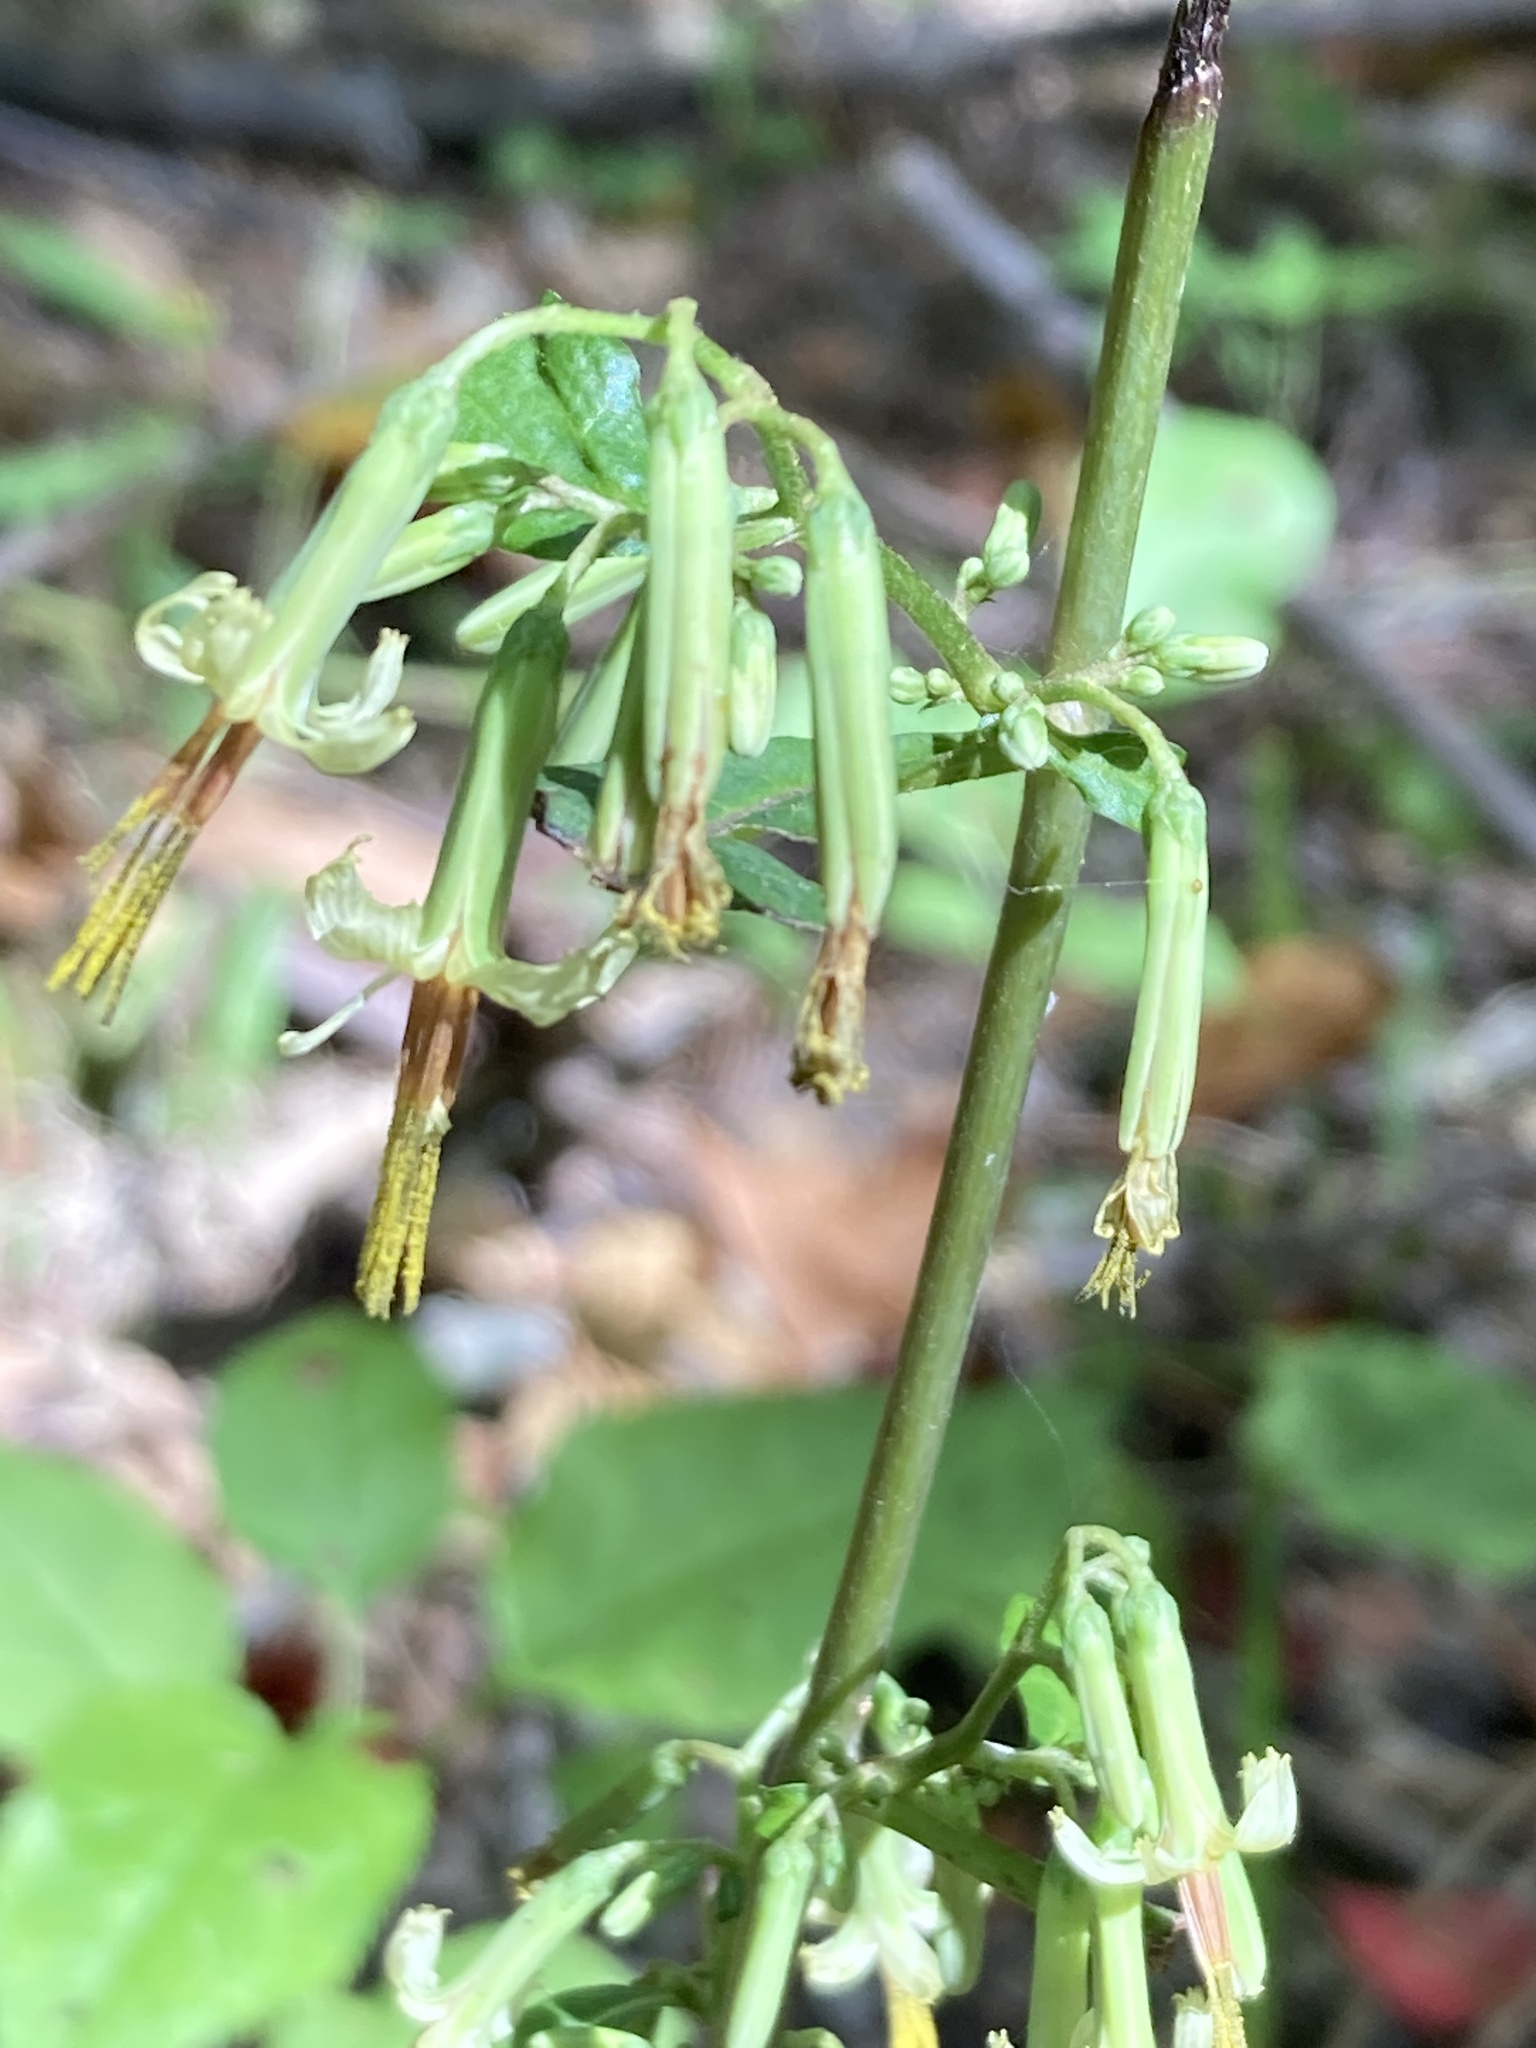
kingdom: Plantae
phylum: Tracheophyta
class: Magnoliopsida
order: Asterales
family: Asteraceae
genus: Nabalus
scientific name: Nabalus altissima
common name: Tall rattlesnakeroot
